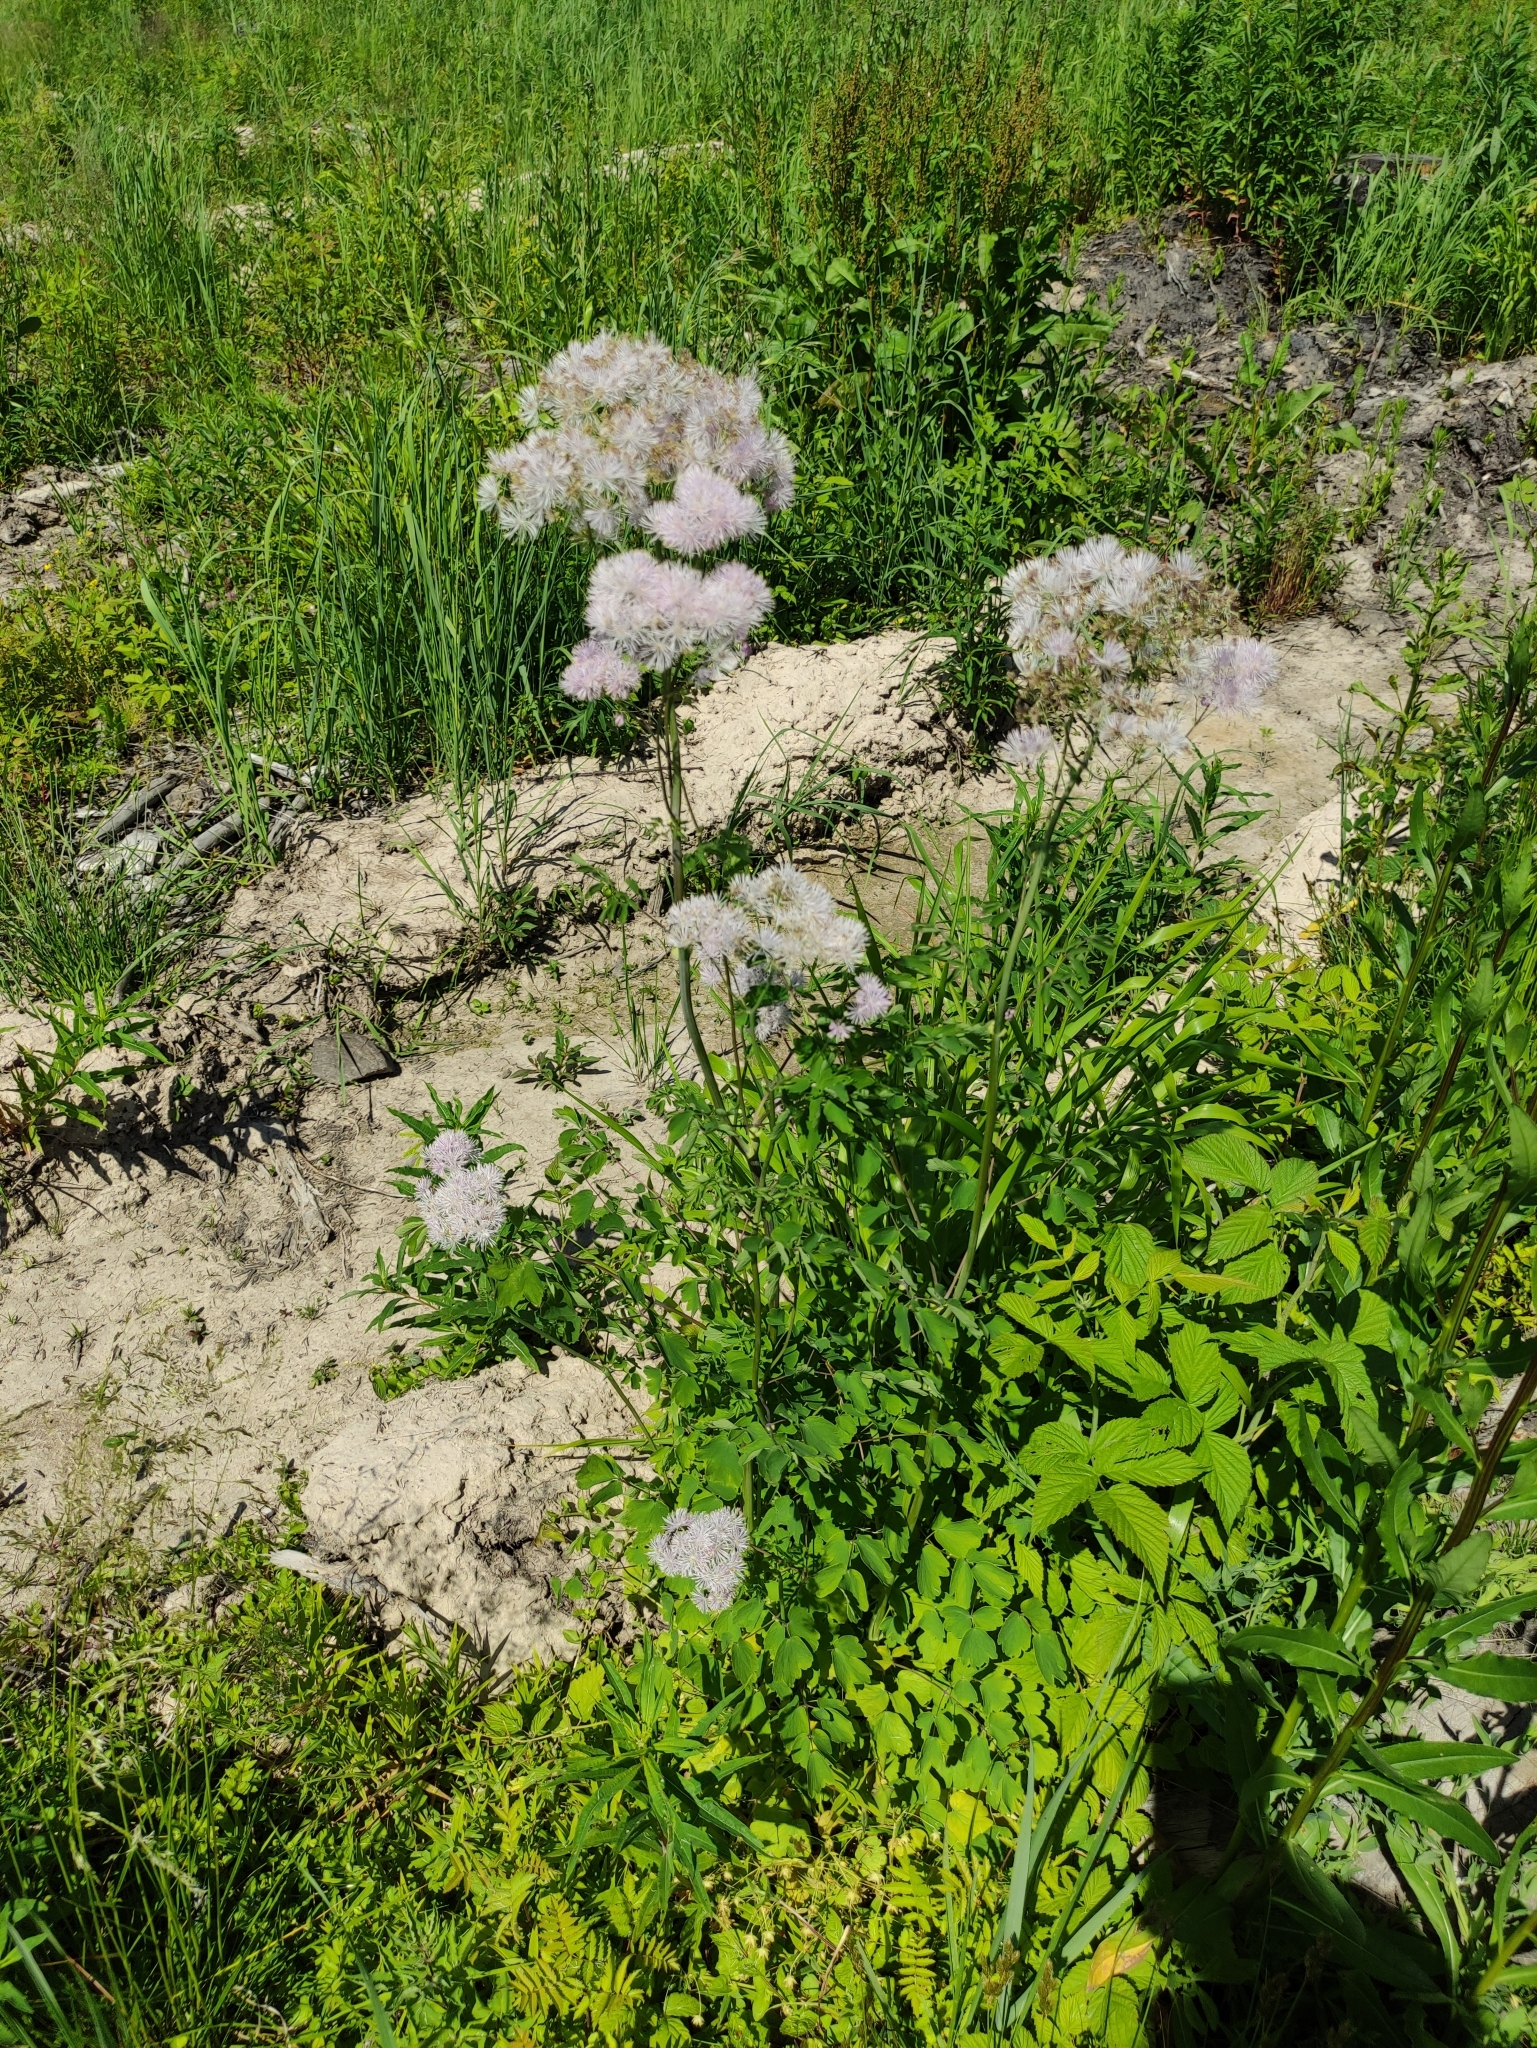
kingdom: Plantae
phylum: Tracheophyta
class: Magnoliopsida
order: Ranunculales
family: Ranunculaceae
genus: Thalictrum
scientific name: Thalictrum aquilegiifolium
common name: French meadow-rue
